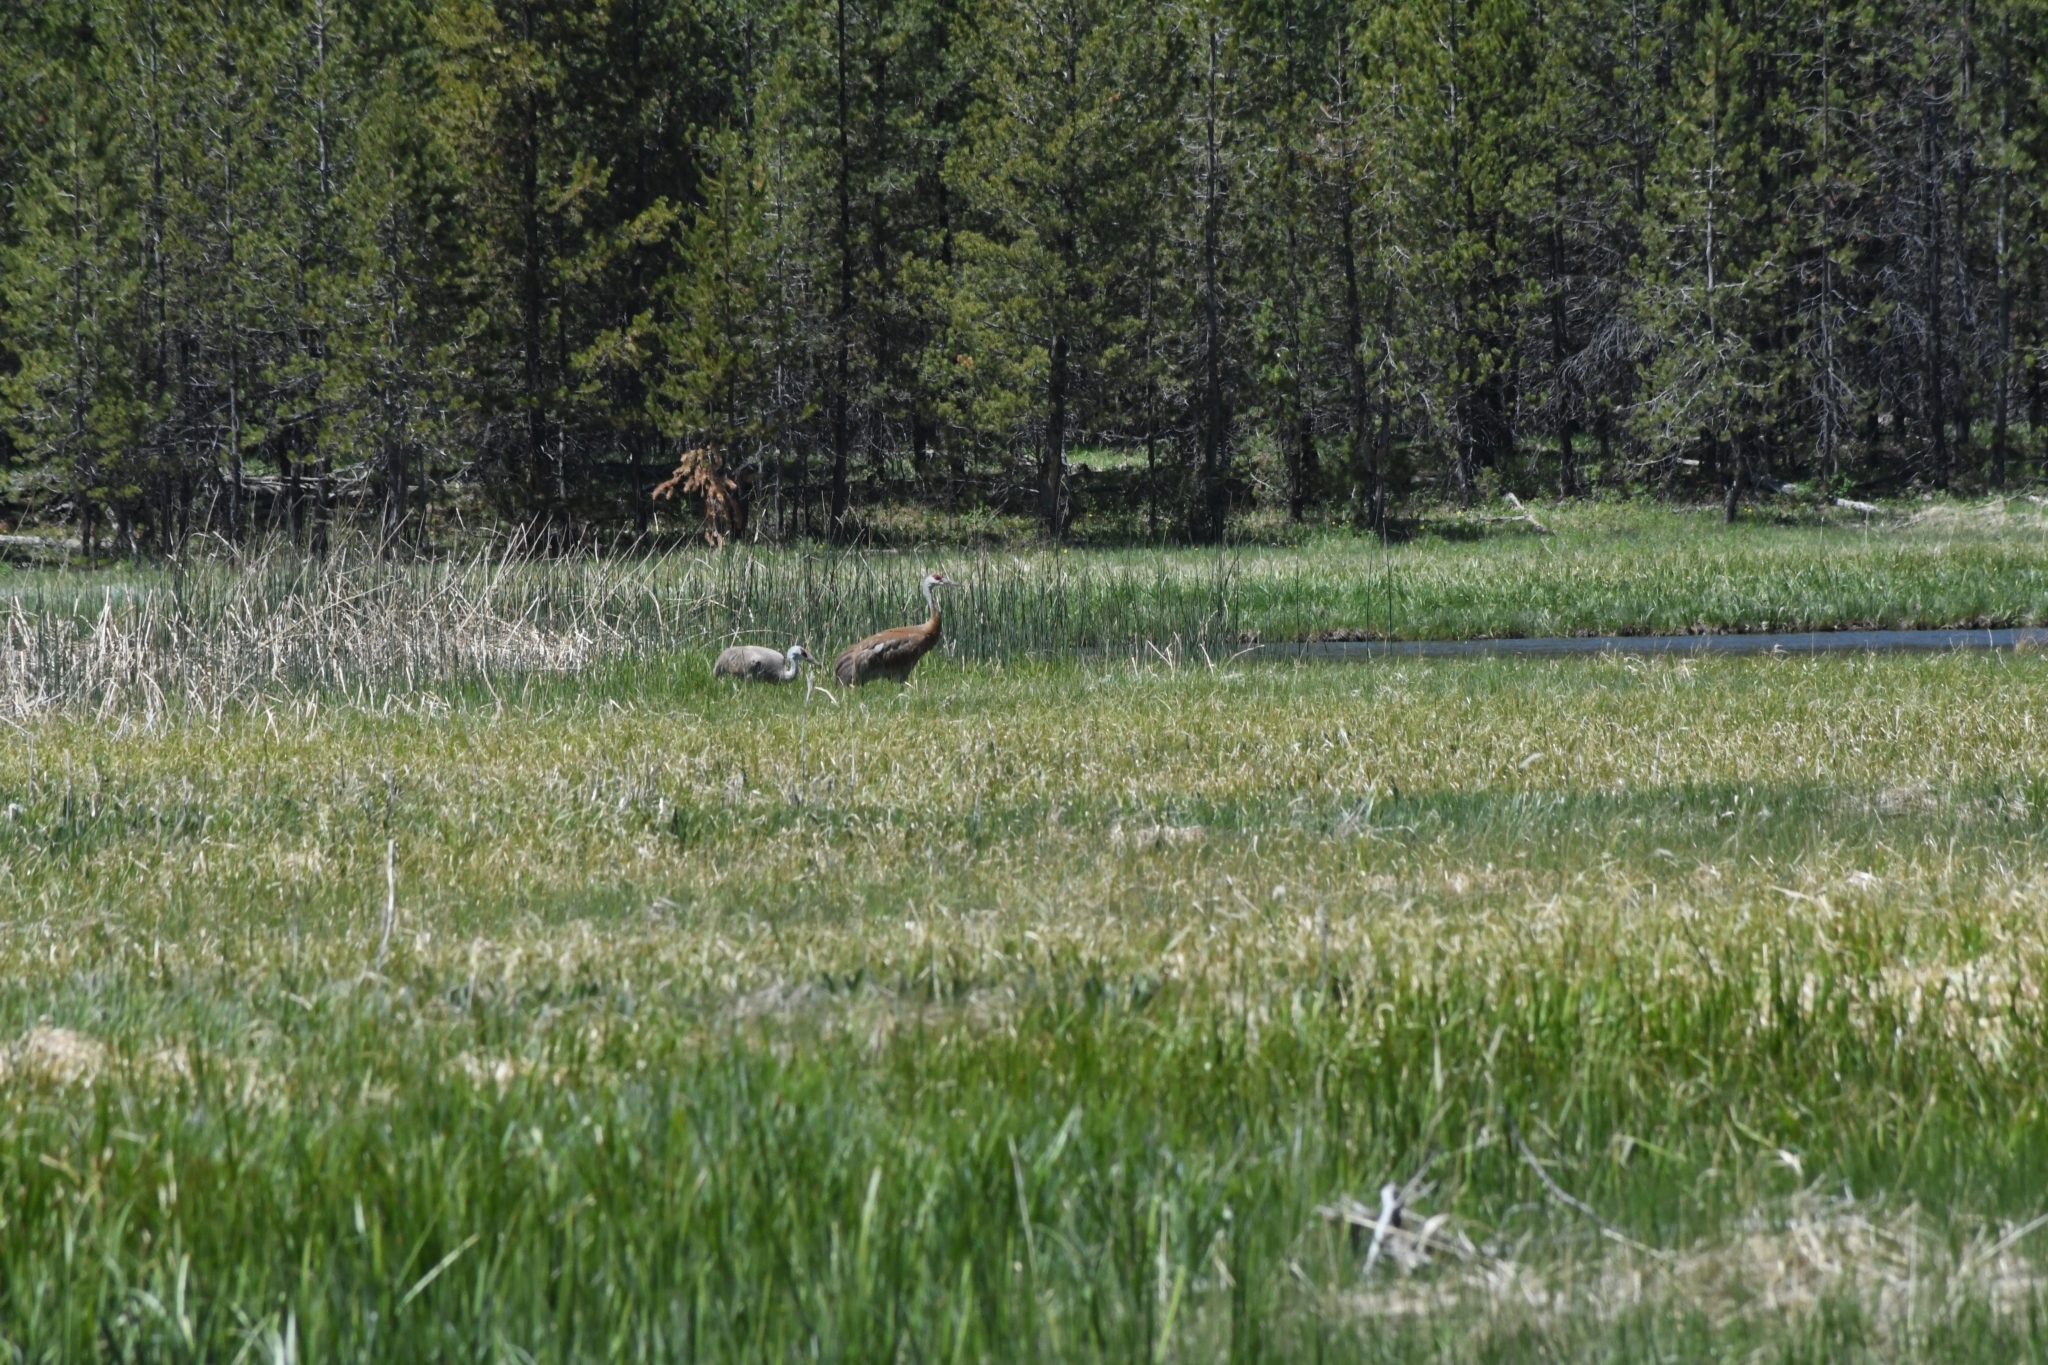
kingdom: Animalia
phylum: Chordata
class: Aves
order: Gruiformes
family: Gruidae
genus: Grus
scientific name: Grus canadensis
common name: Sandhill crane
